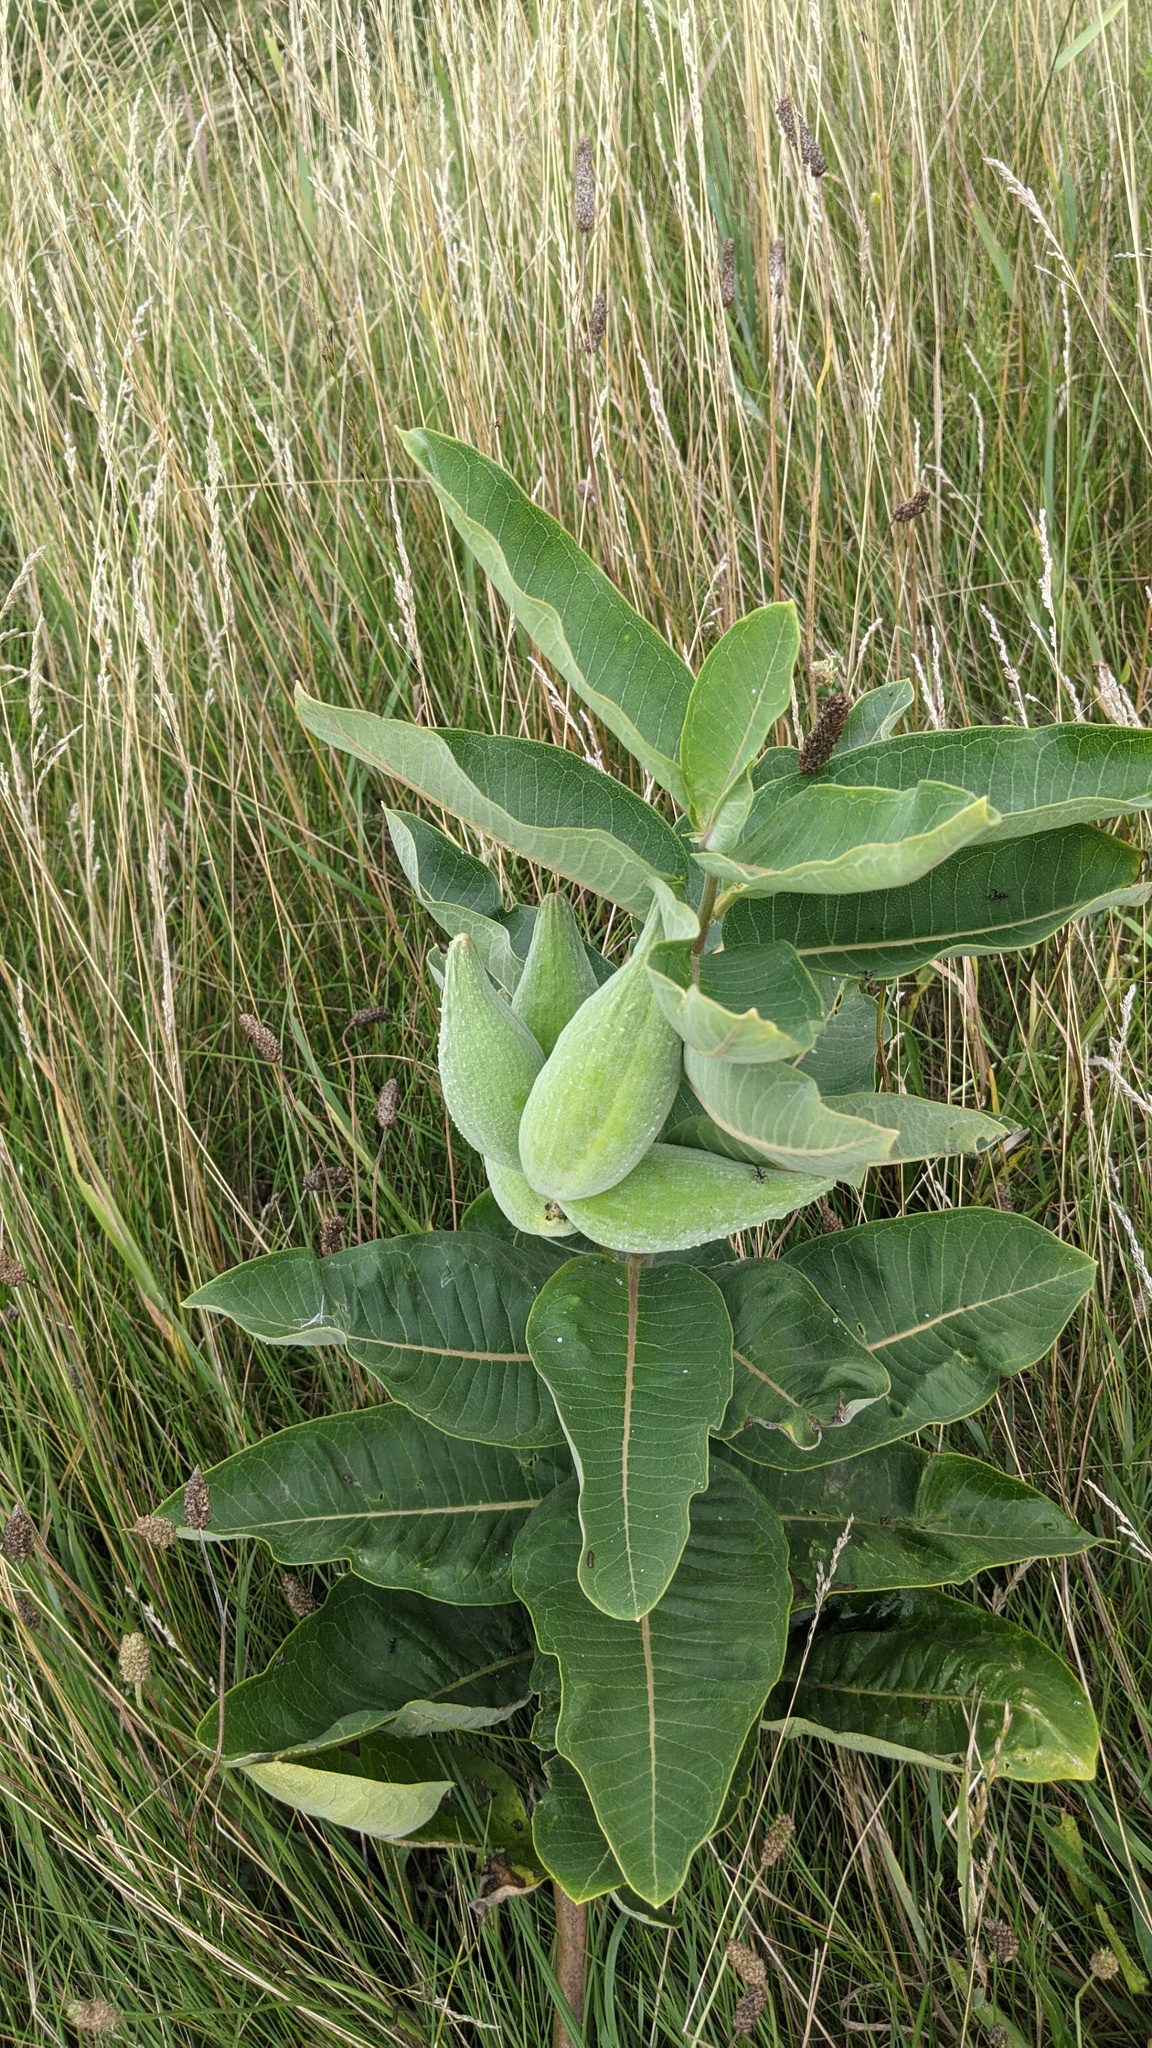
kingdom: Plantae
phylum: Tracheophyta
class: Magnoliopsida
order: Gentianales
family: Apocynaceae
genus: Asclepias
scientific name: Asclepias syriaca
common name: Common milkweed
